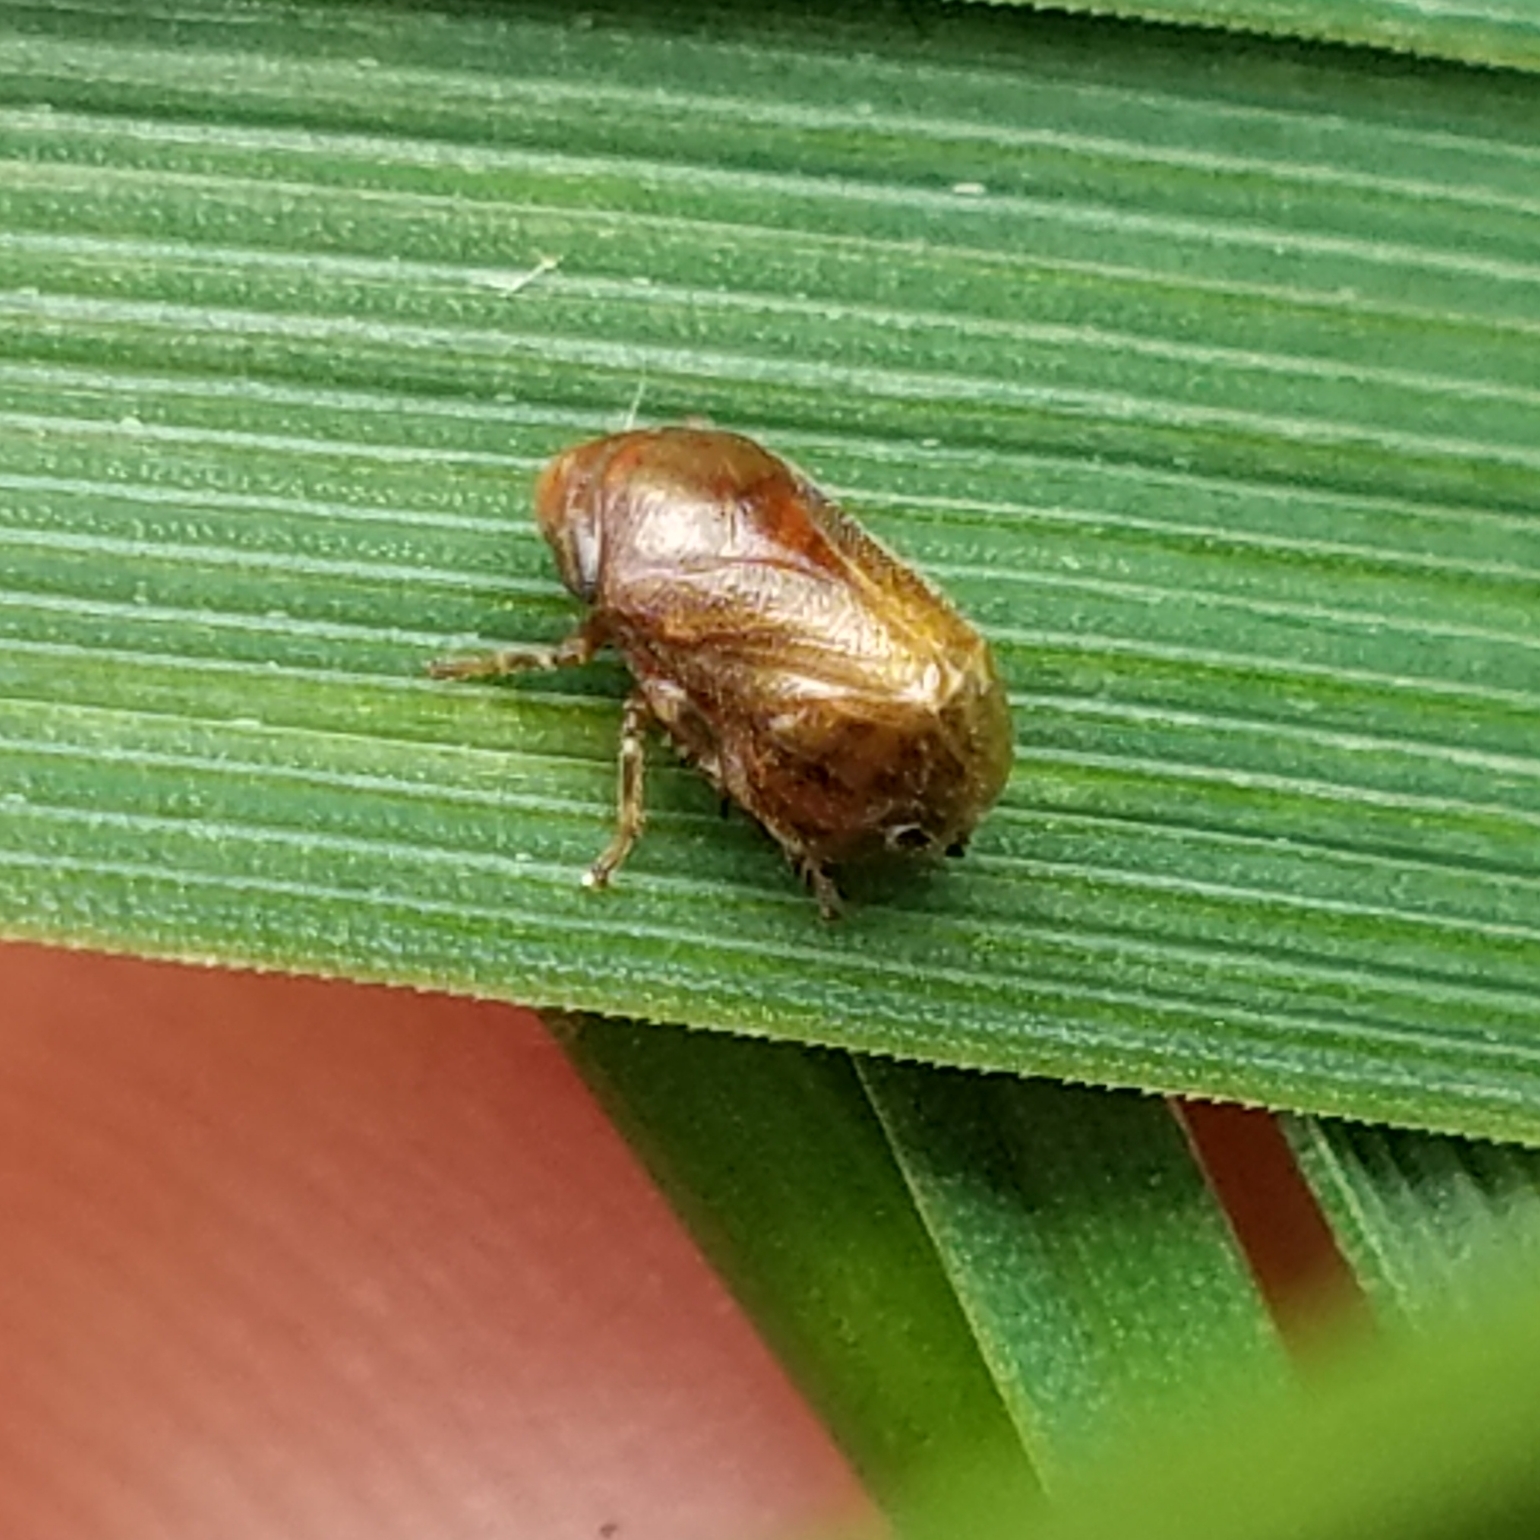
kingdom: Animalia
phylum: Arthropoda
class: Insecta
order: Hemiptera
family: Clastopteridae
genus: Clastoptera
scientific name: Clastoptera testacea
